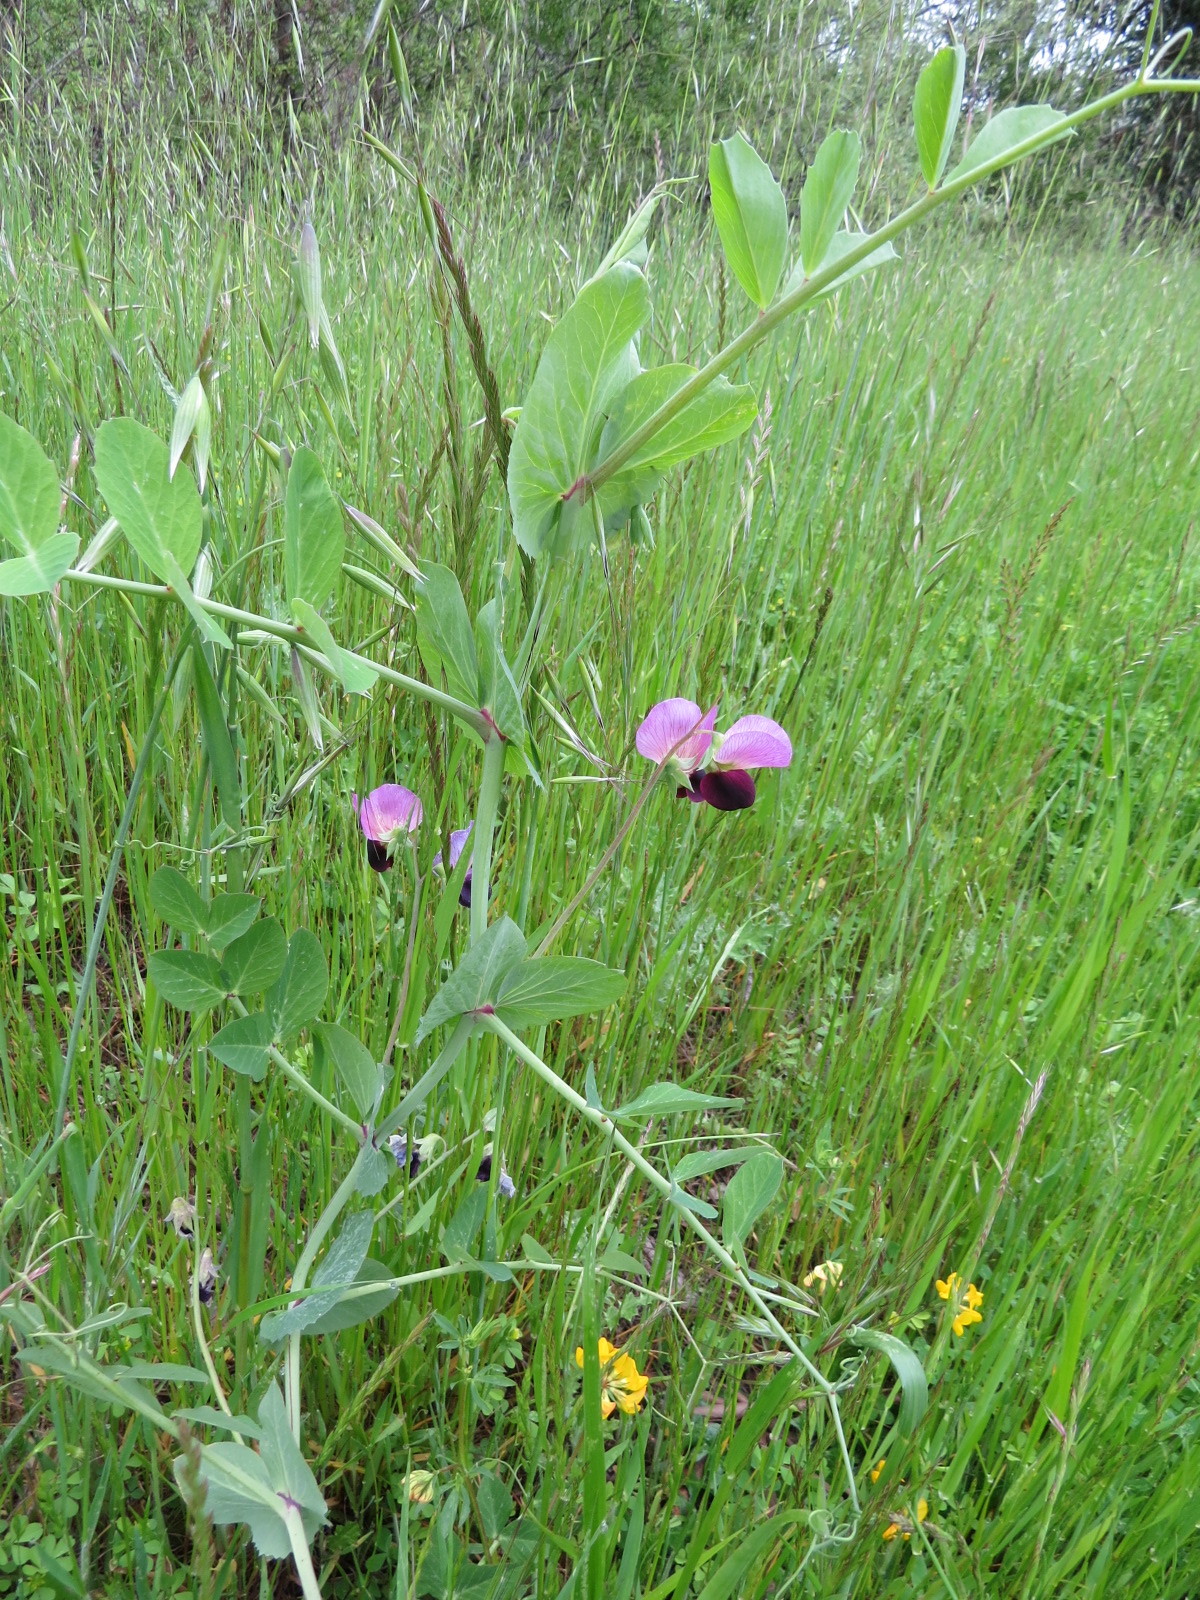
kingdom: Plantae
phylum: Tracheophyta
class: Magnoliopsida
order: Fabales
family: Fabaceae
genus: Lathyrus
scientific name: Lathyrus oleraceus
